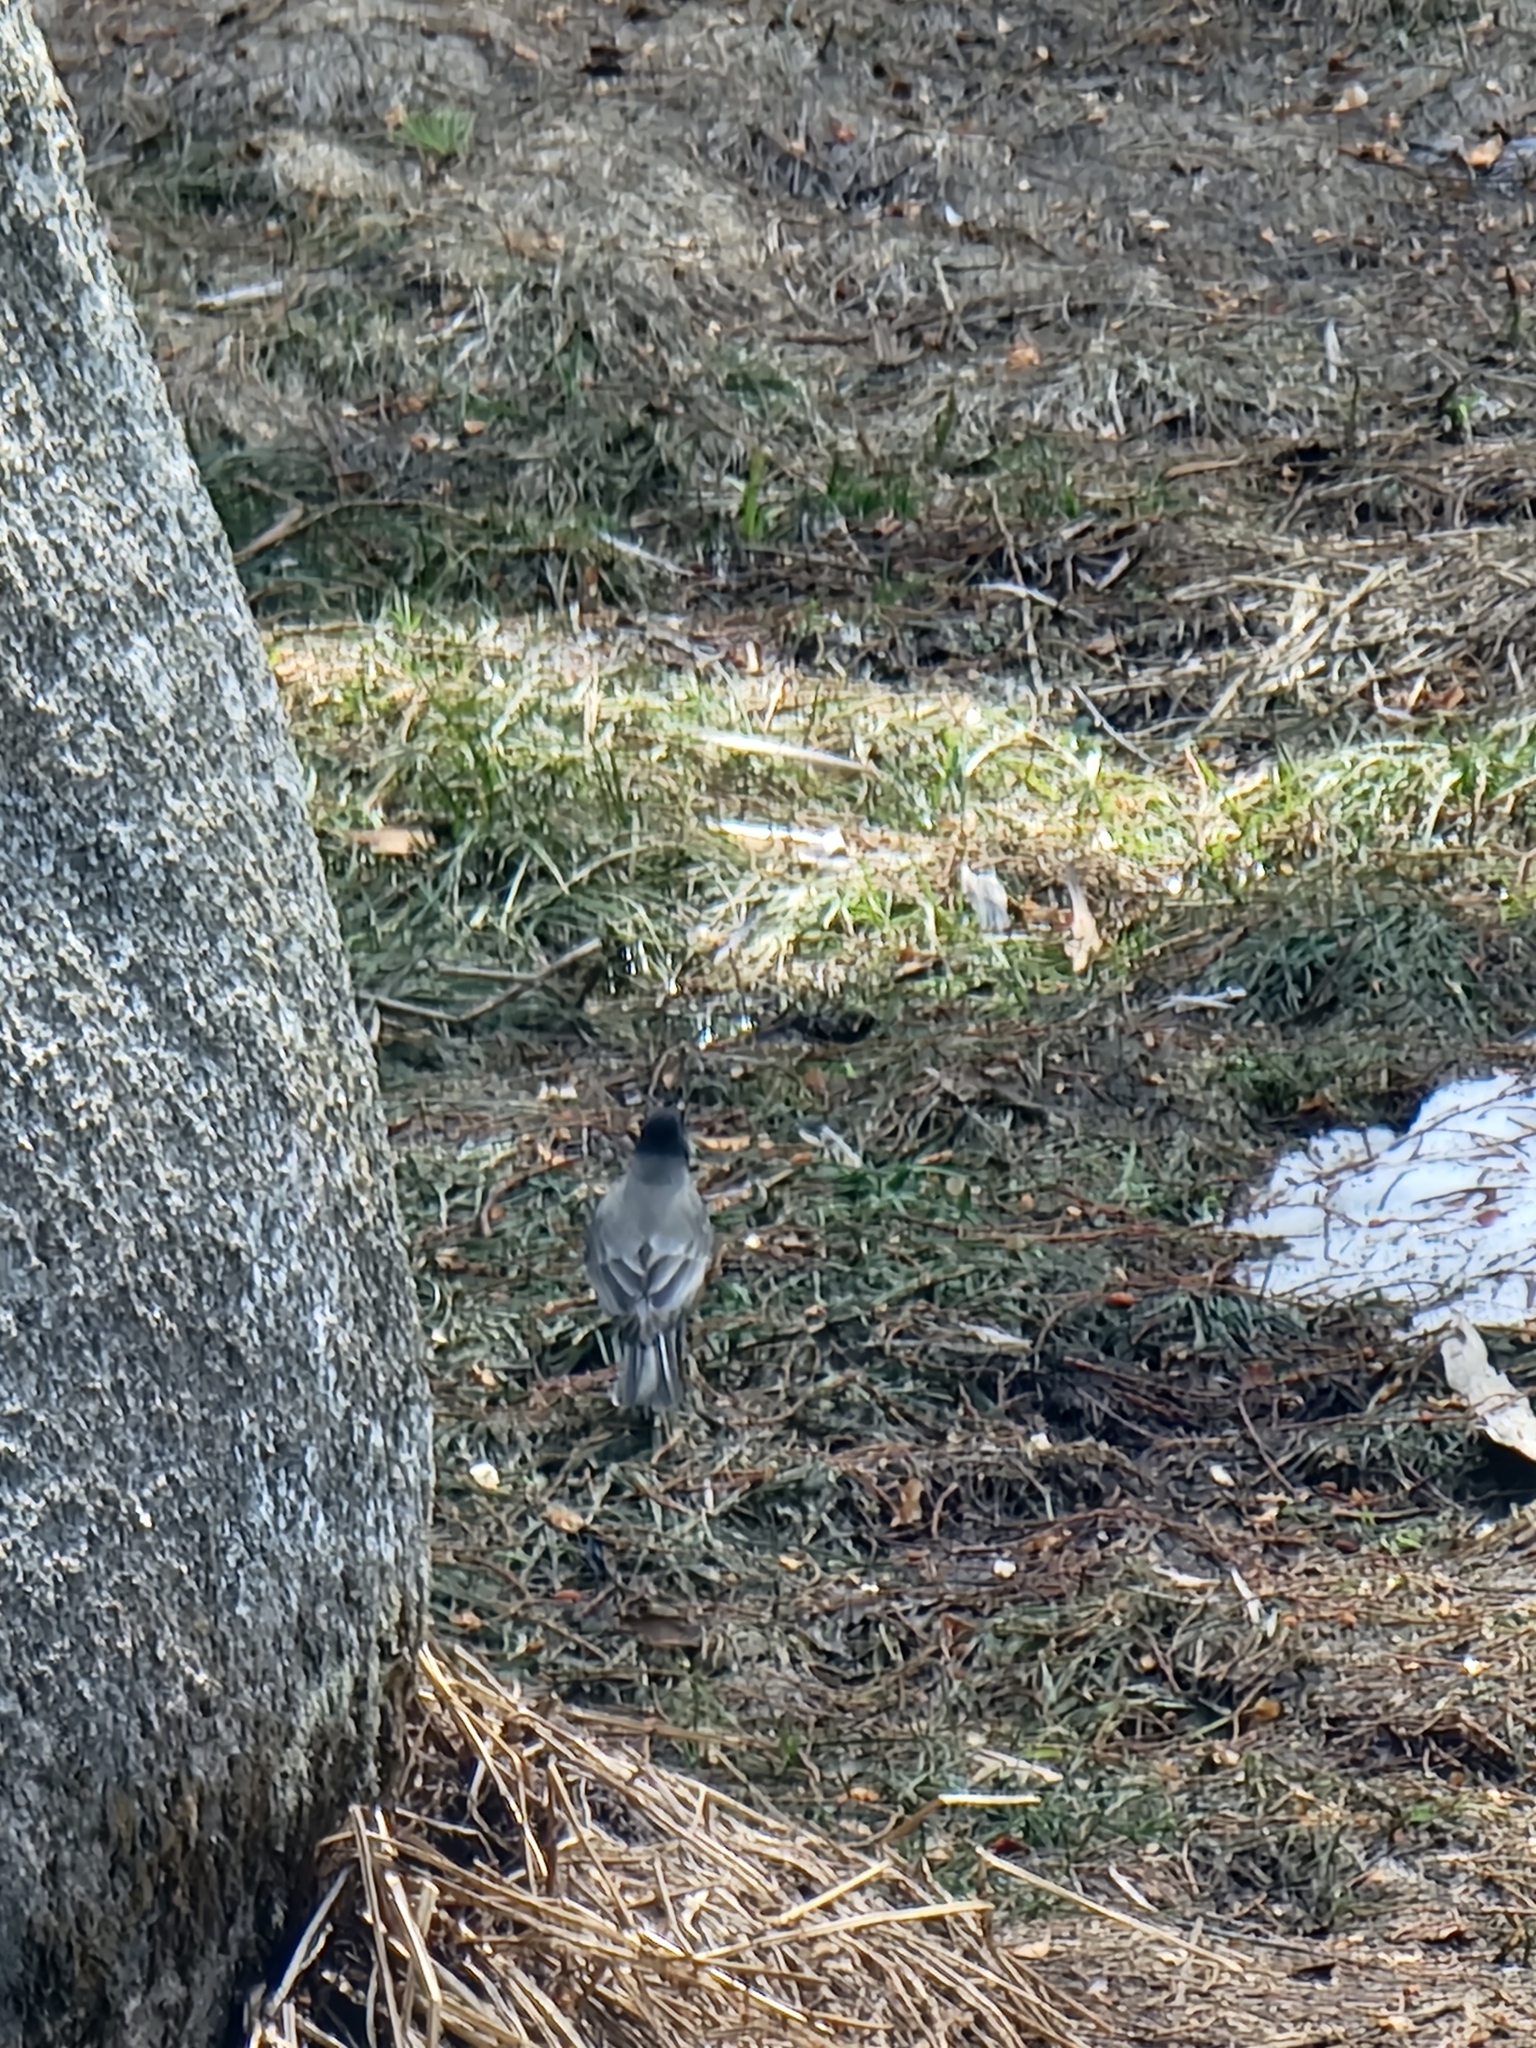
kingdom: Animalia
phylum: Chordata
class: Aves
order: Passeriformes
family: Turdidae
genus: Turdus
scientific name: Turdus migratorius
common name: American robin
